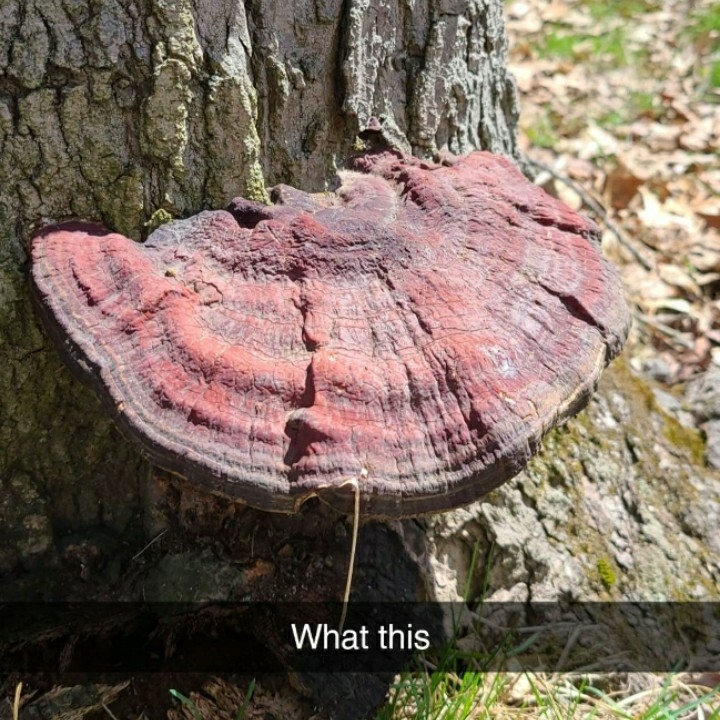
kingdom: Fungi
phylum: Basidiomycota
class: Agaricomycetes
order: Polyporales
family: Polyporaceae
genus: Ganoderma
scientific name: Ganoderma resinaceum
